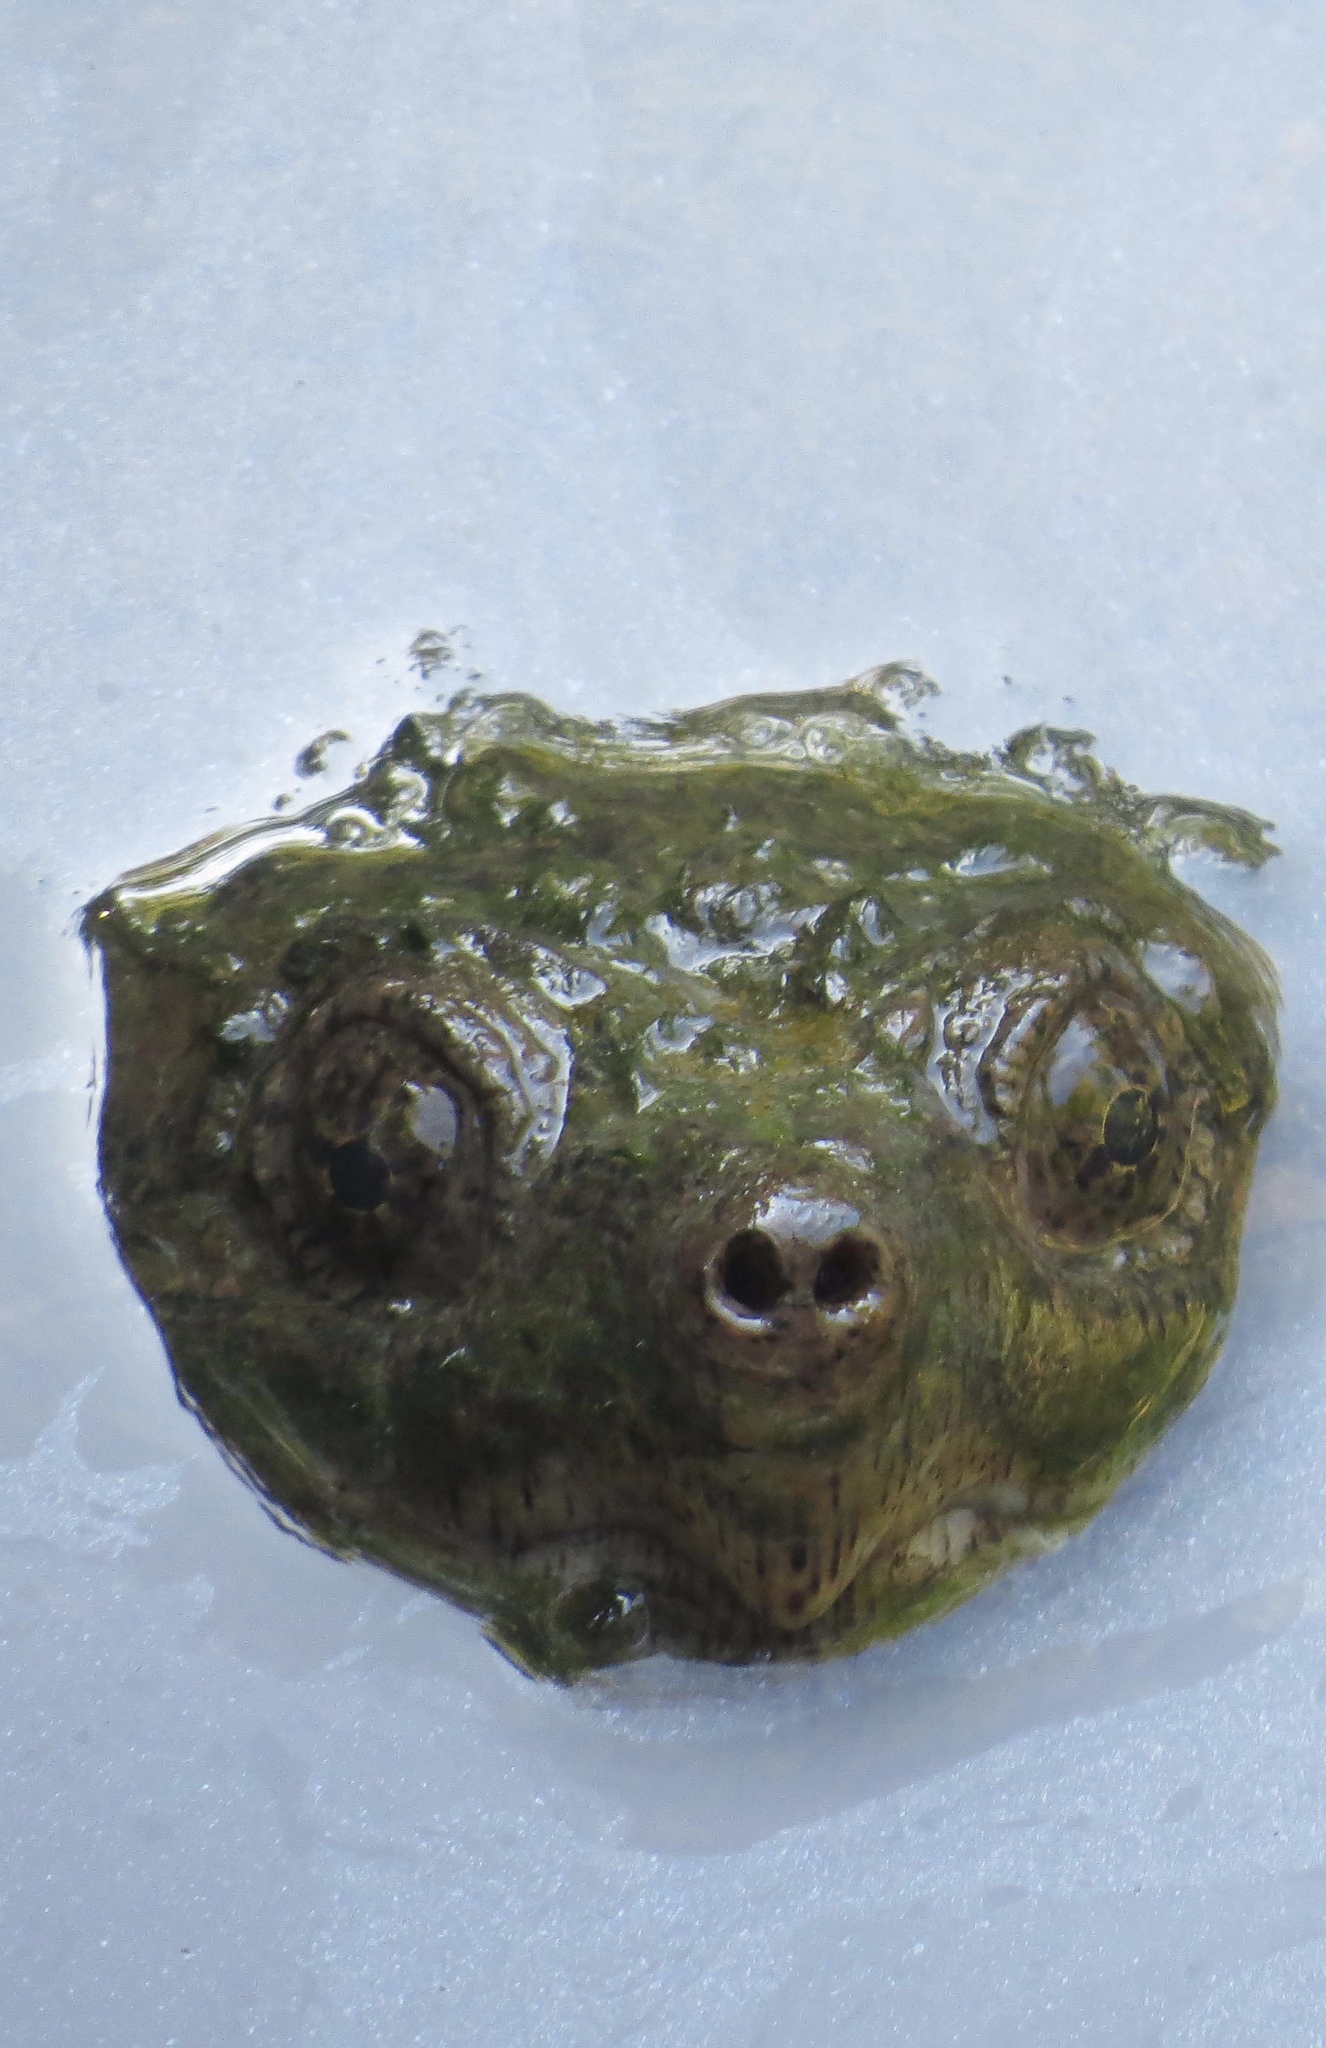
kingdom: Animalia
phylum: Chordata
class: Testudines
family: Chelydridae
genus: Chelydra
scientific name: Chelydra serpentina
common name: Common snapping turtle
